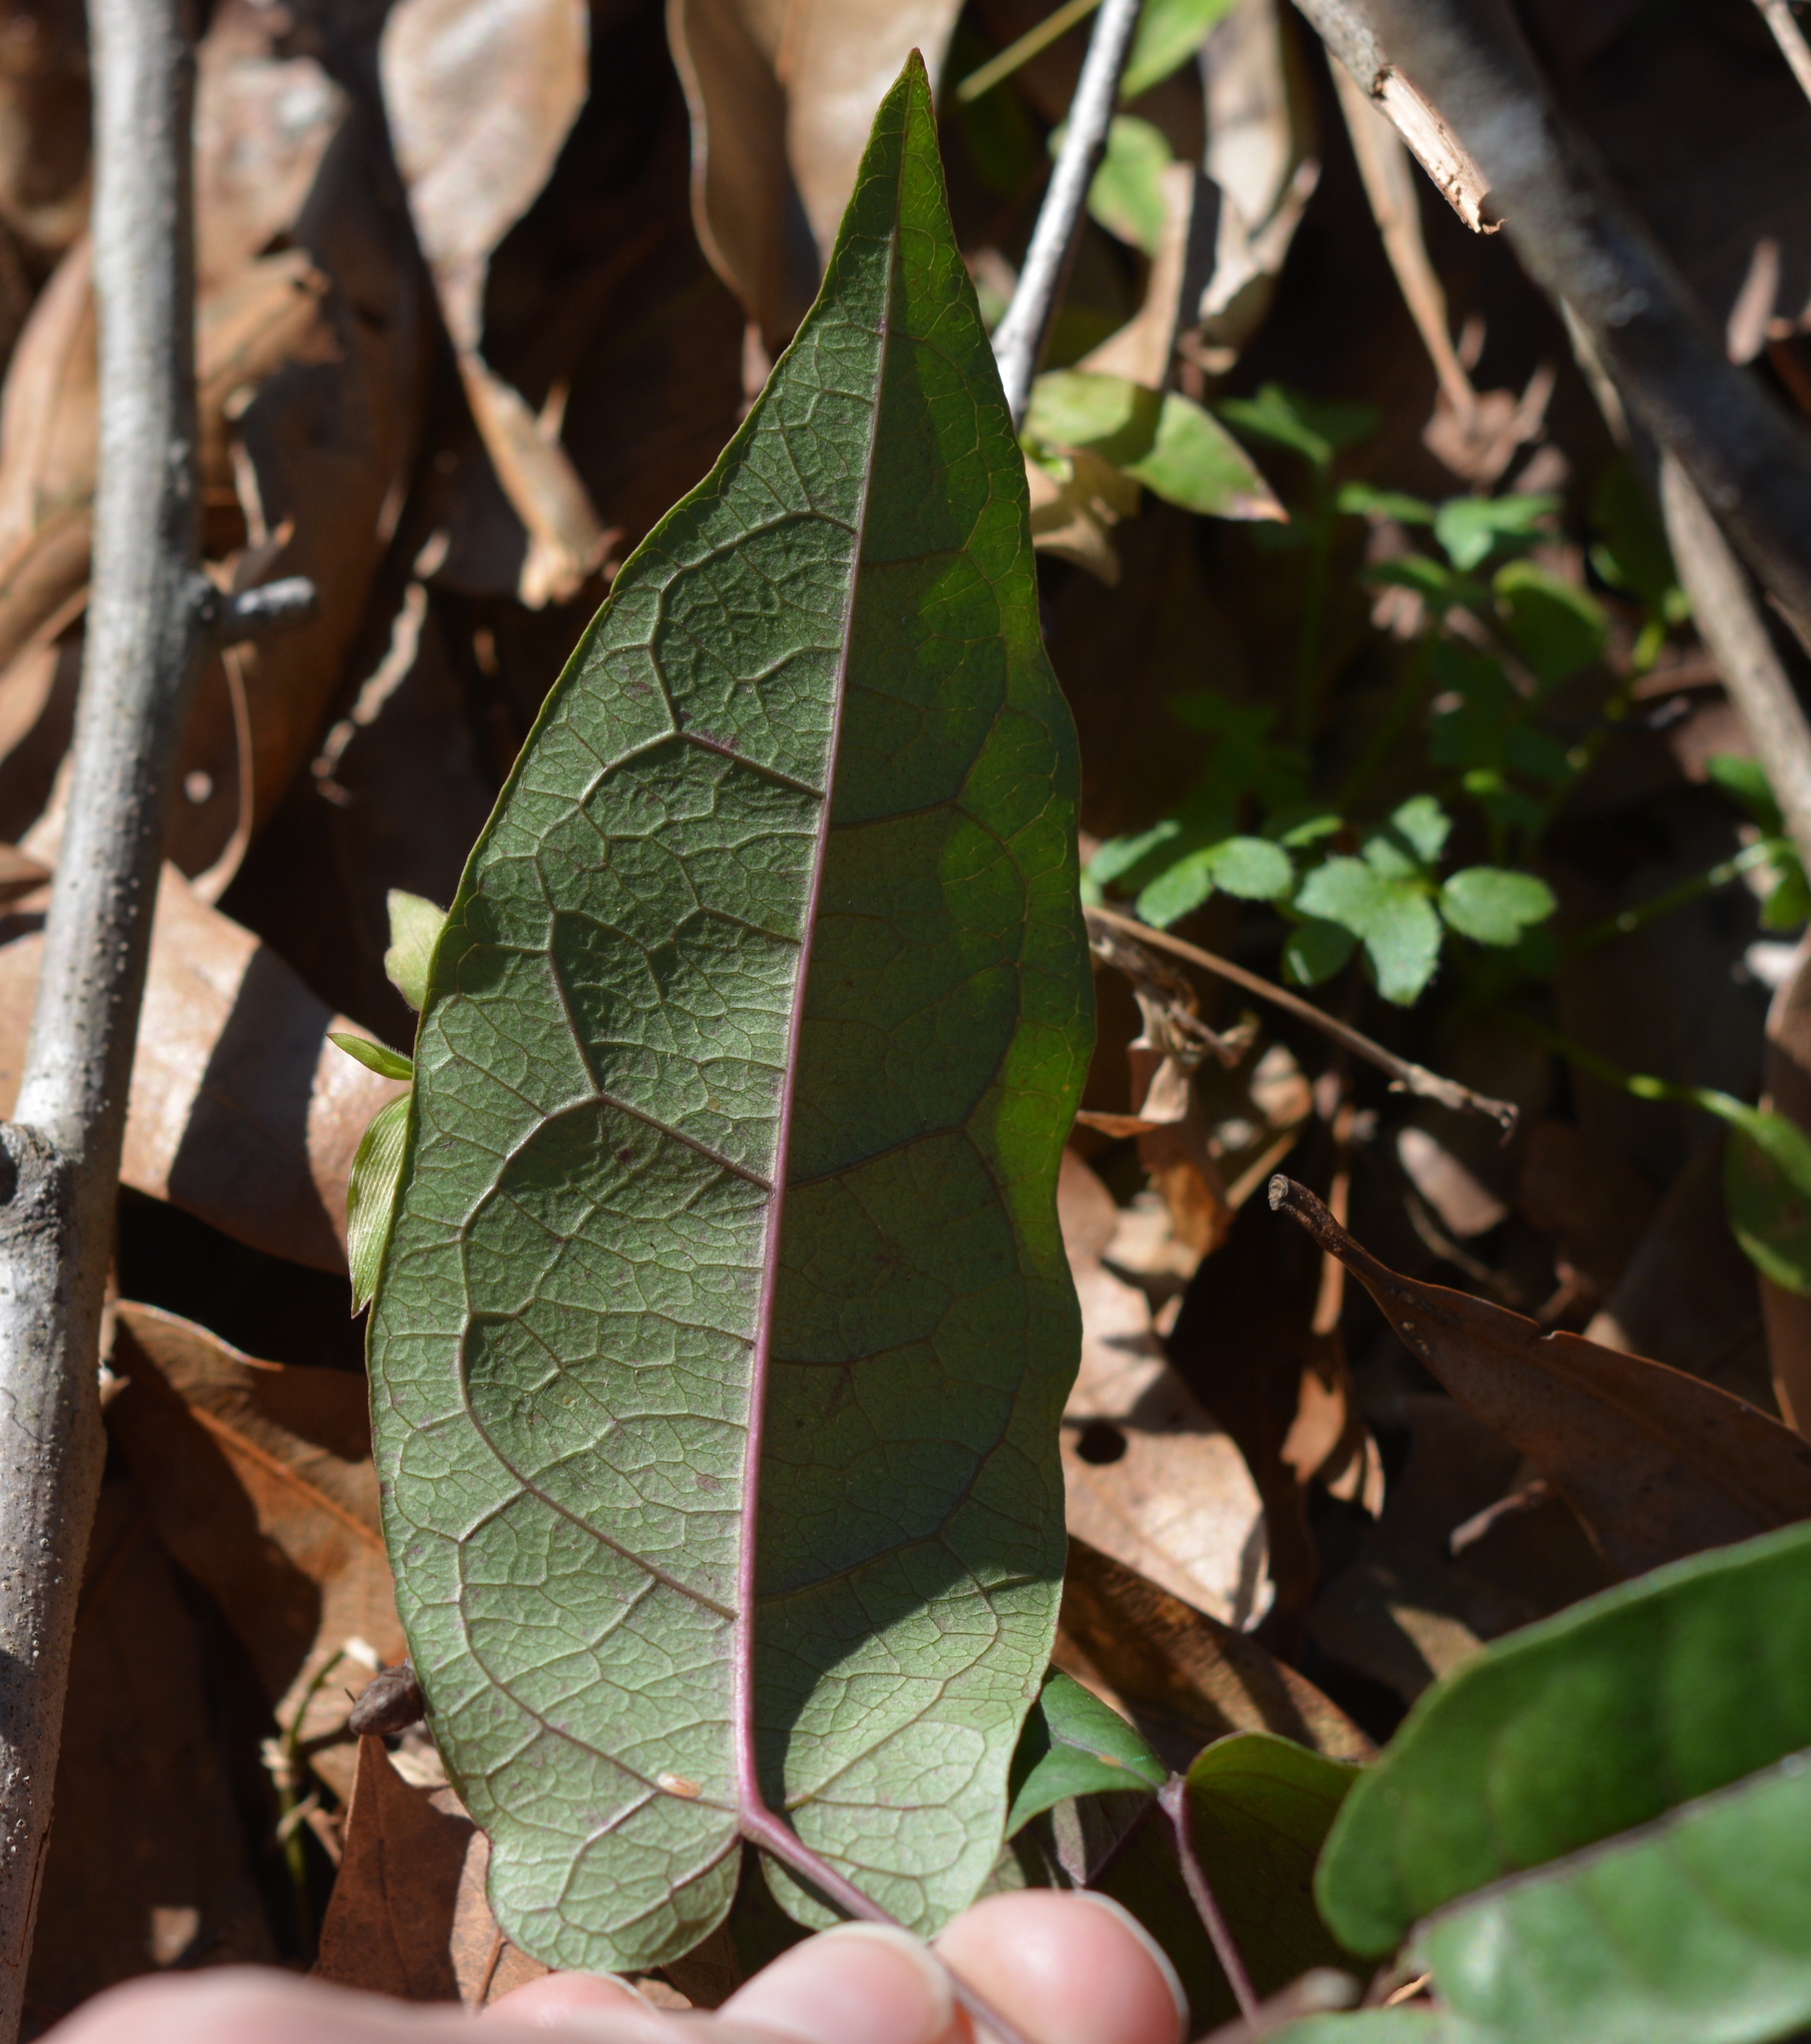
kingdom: Plantae
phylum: Tracheophyta
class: Magnoliopsida
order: Lamiales
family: Bignoniaceae
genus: Bignonia
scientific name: Bignonia capreolata
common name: Crossvine
